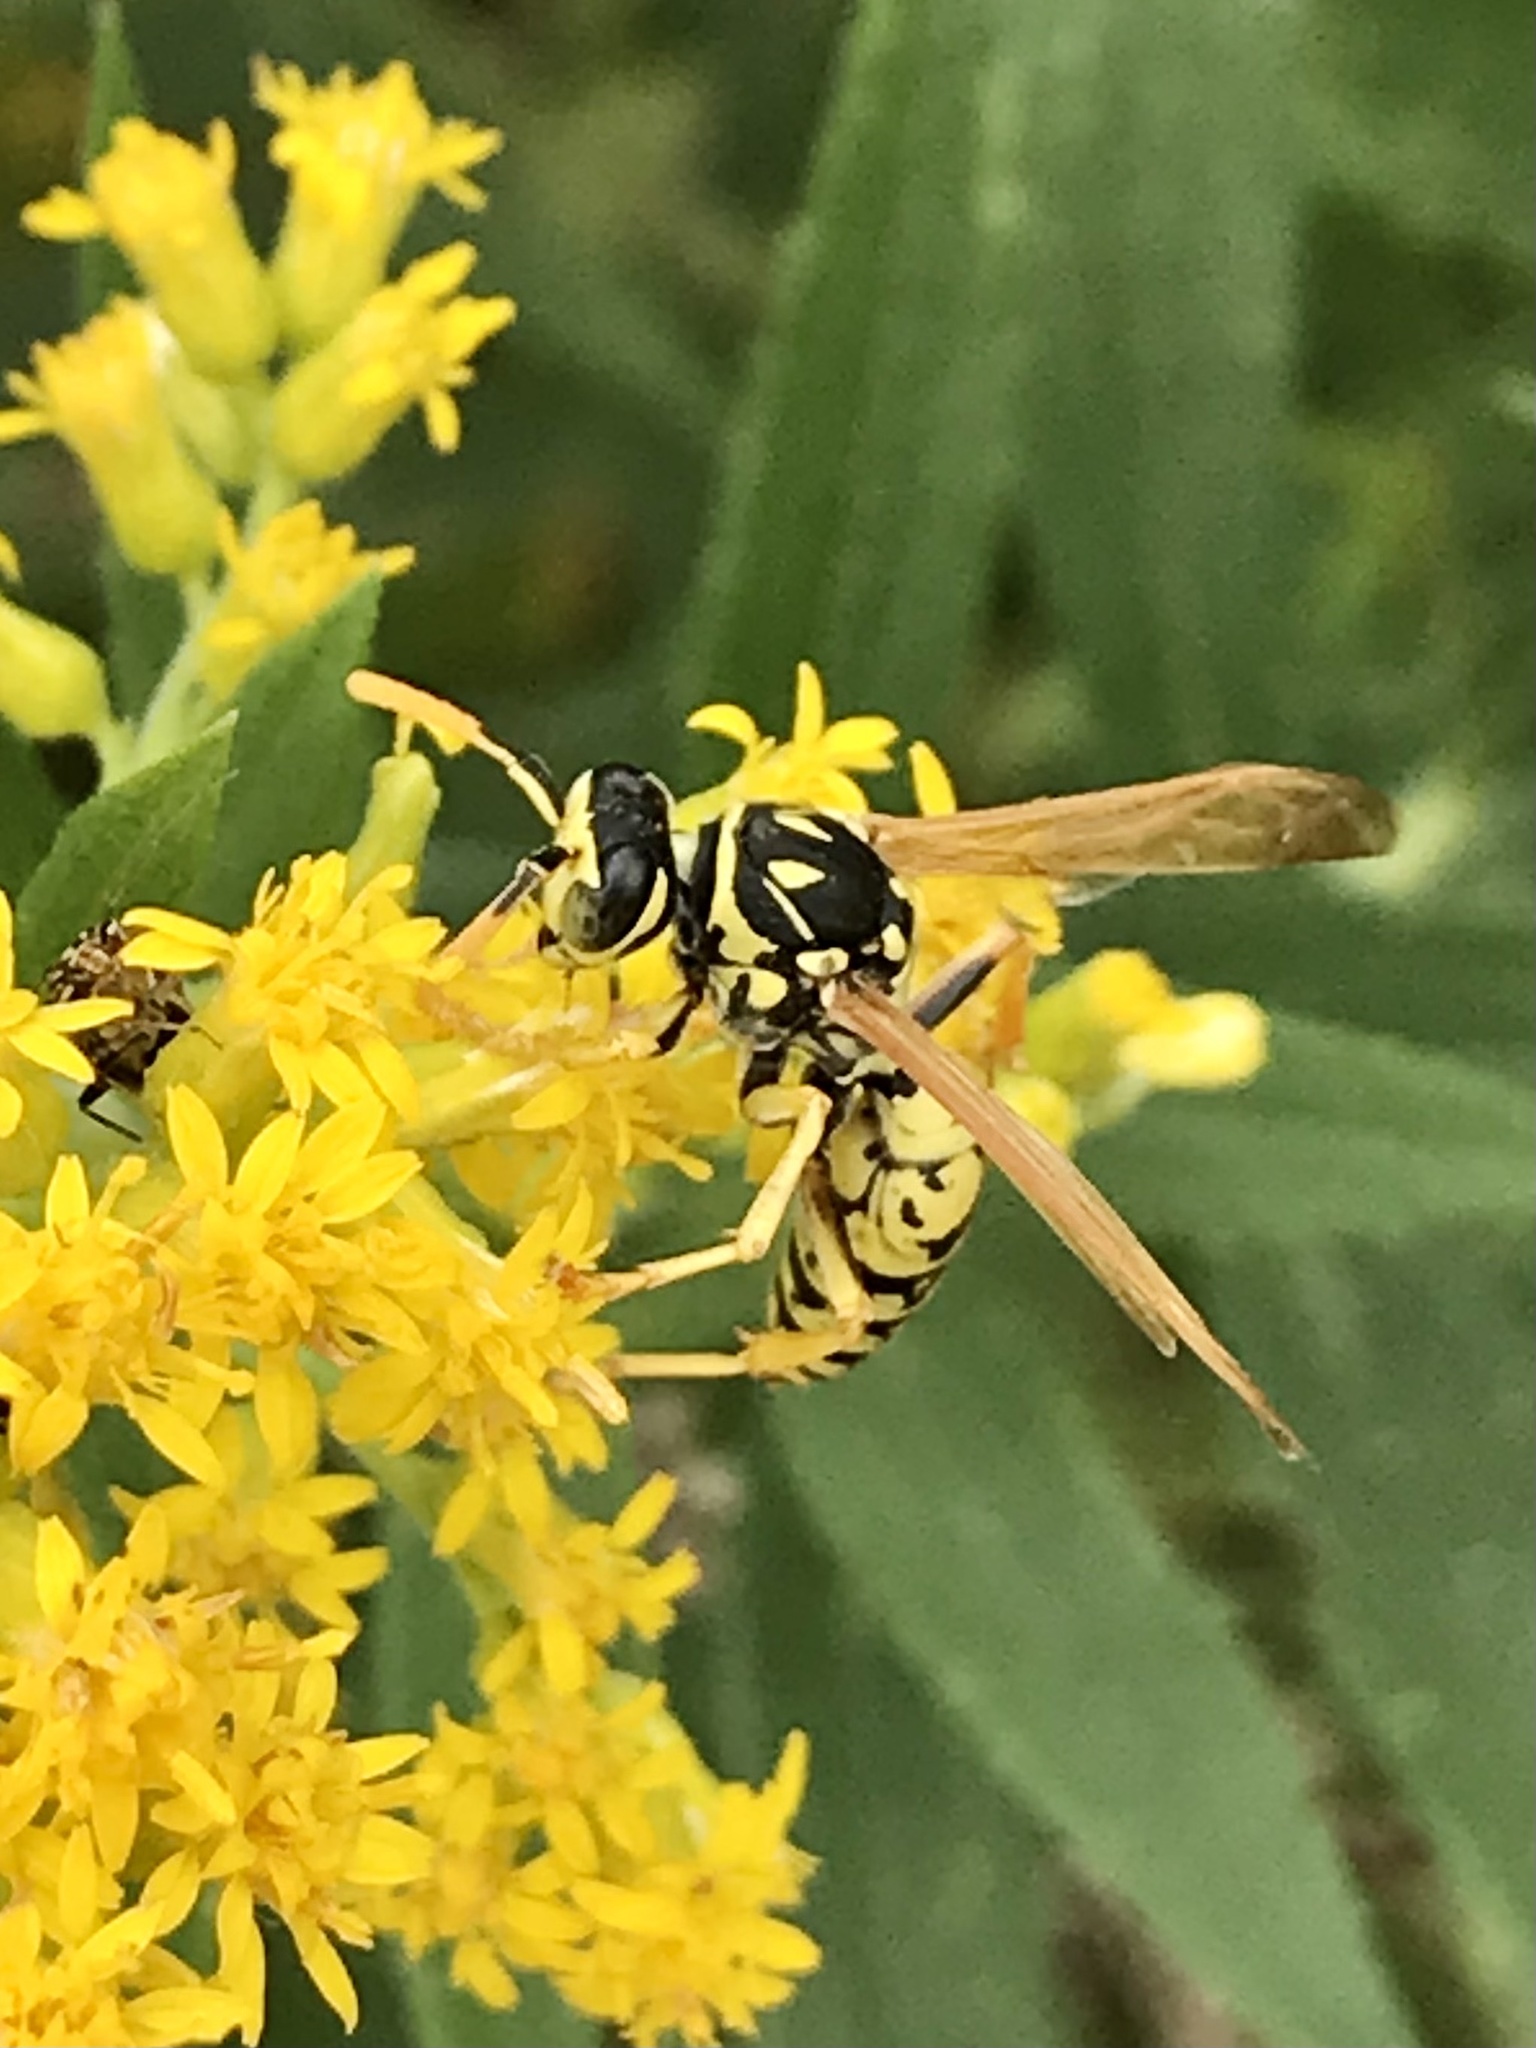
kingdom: Animalia
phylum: Arthropoda
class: Insecta
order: Hymenoptera
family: Eumenidae
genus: Polistes
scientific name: Polistes dominula
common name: Paper wasp
